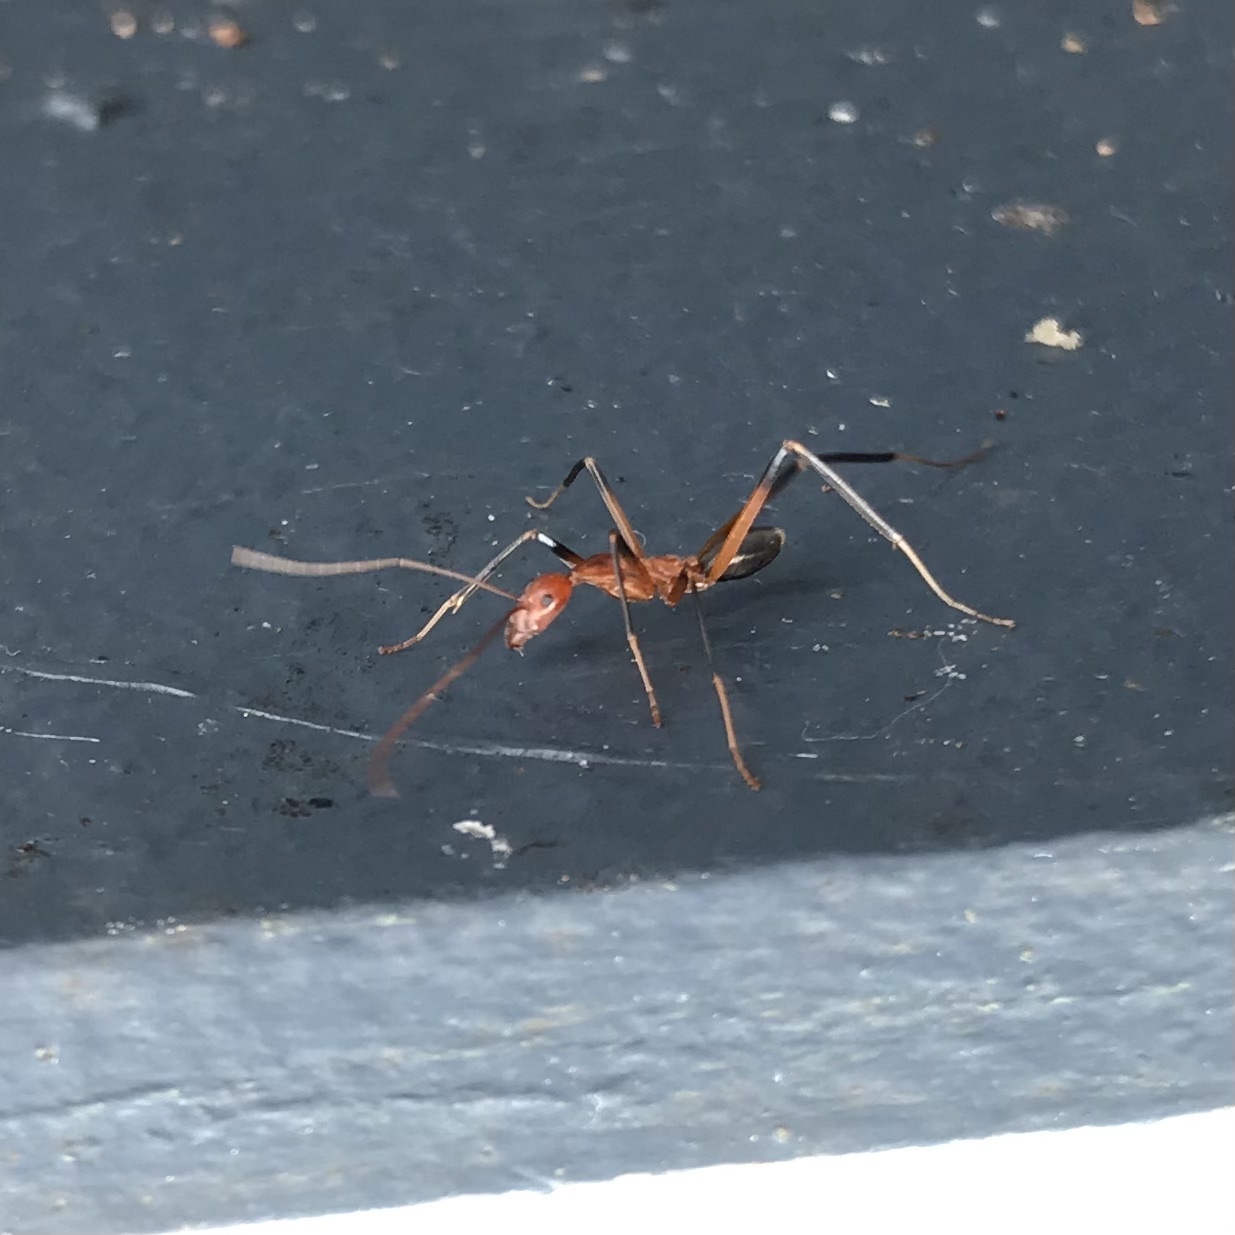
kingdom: Animalia
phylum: Arthropoda
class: Insecta
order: Hymenoptera
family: Formicidae
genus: Leptomyrmex
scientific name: Leptomyrmex cnemidatus
